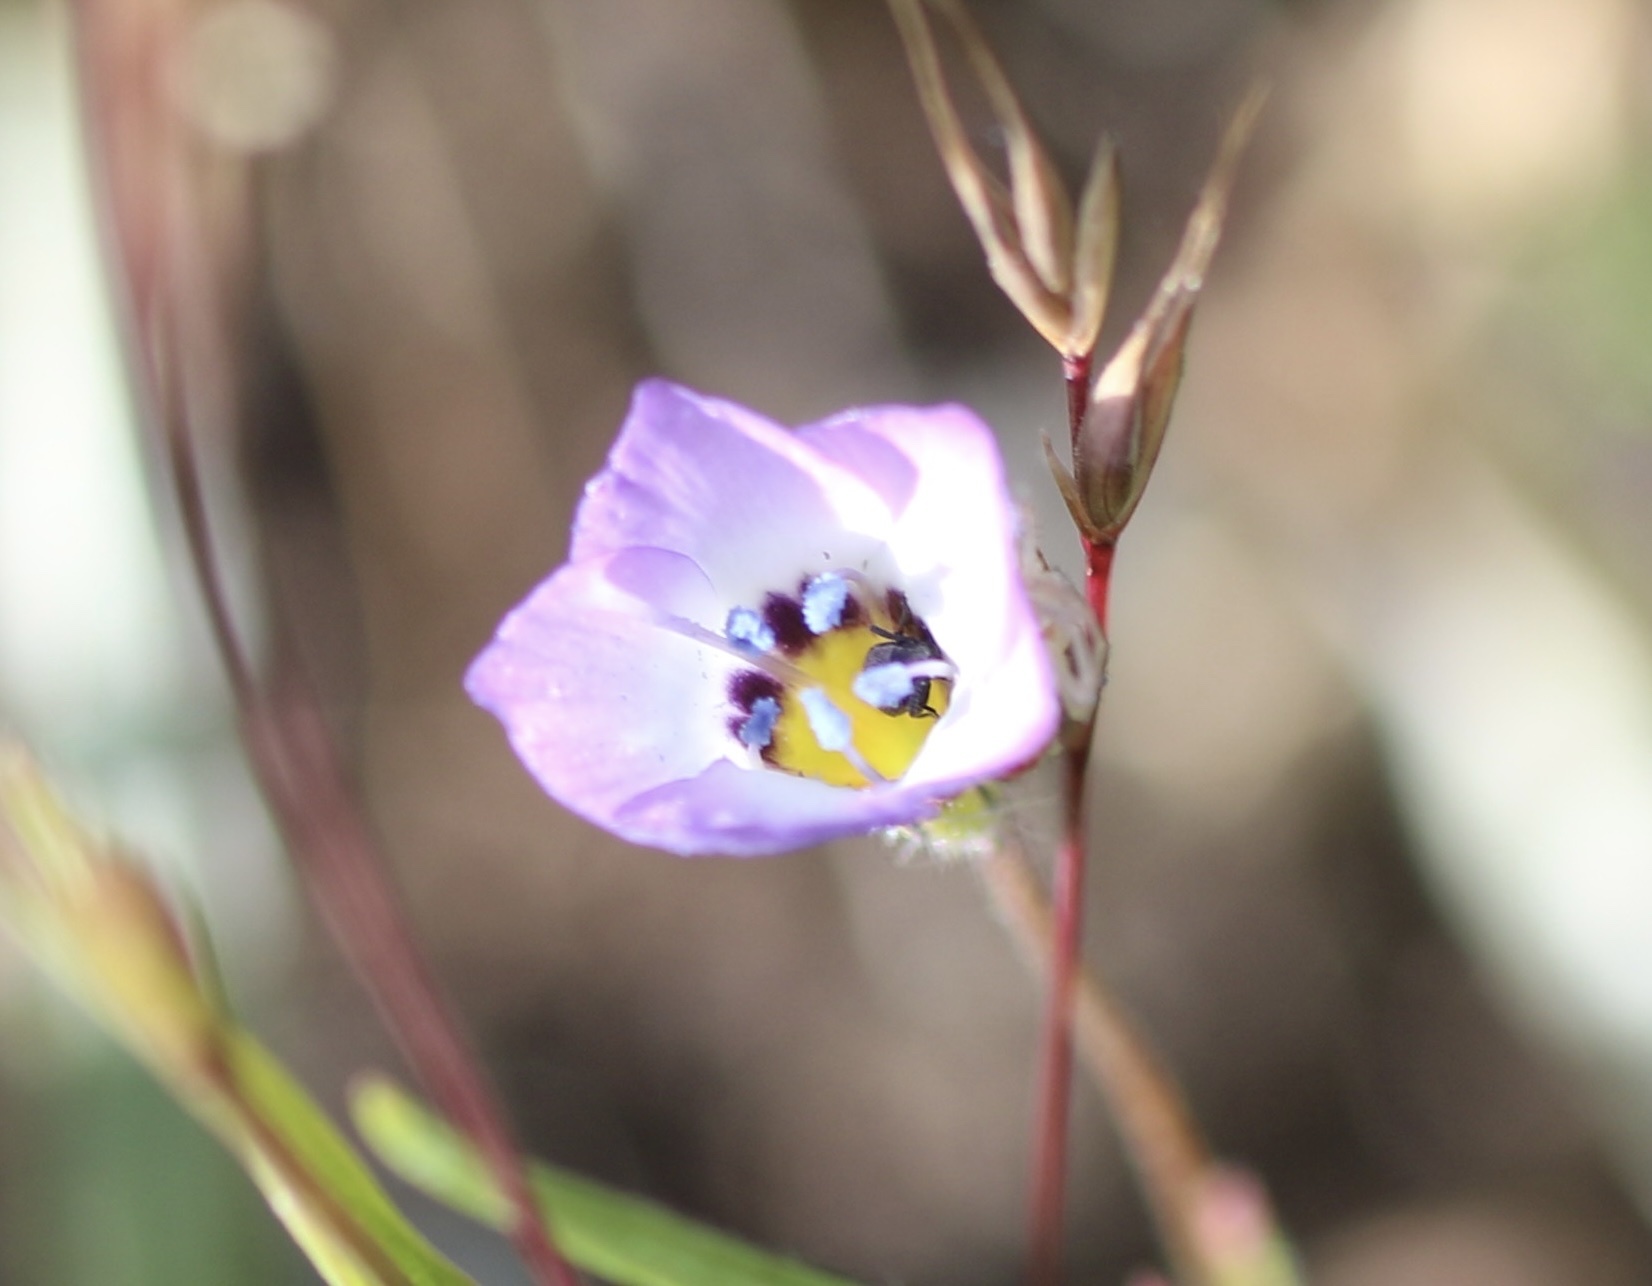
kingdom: Plantae
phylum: Tracheophyta
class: Magnoliopsida
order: Ericales
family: Polemoniaceae
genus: Gilia
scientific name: Gilia tricolor
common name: Bird's-eyes
